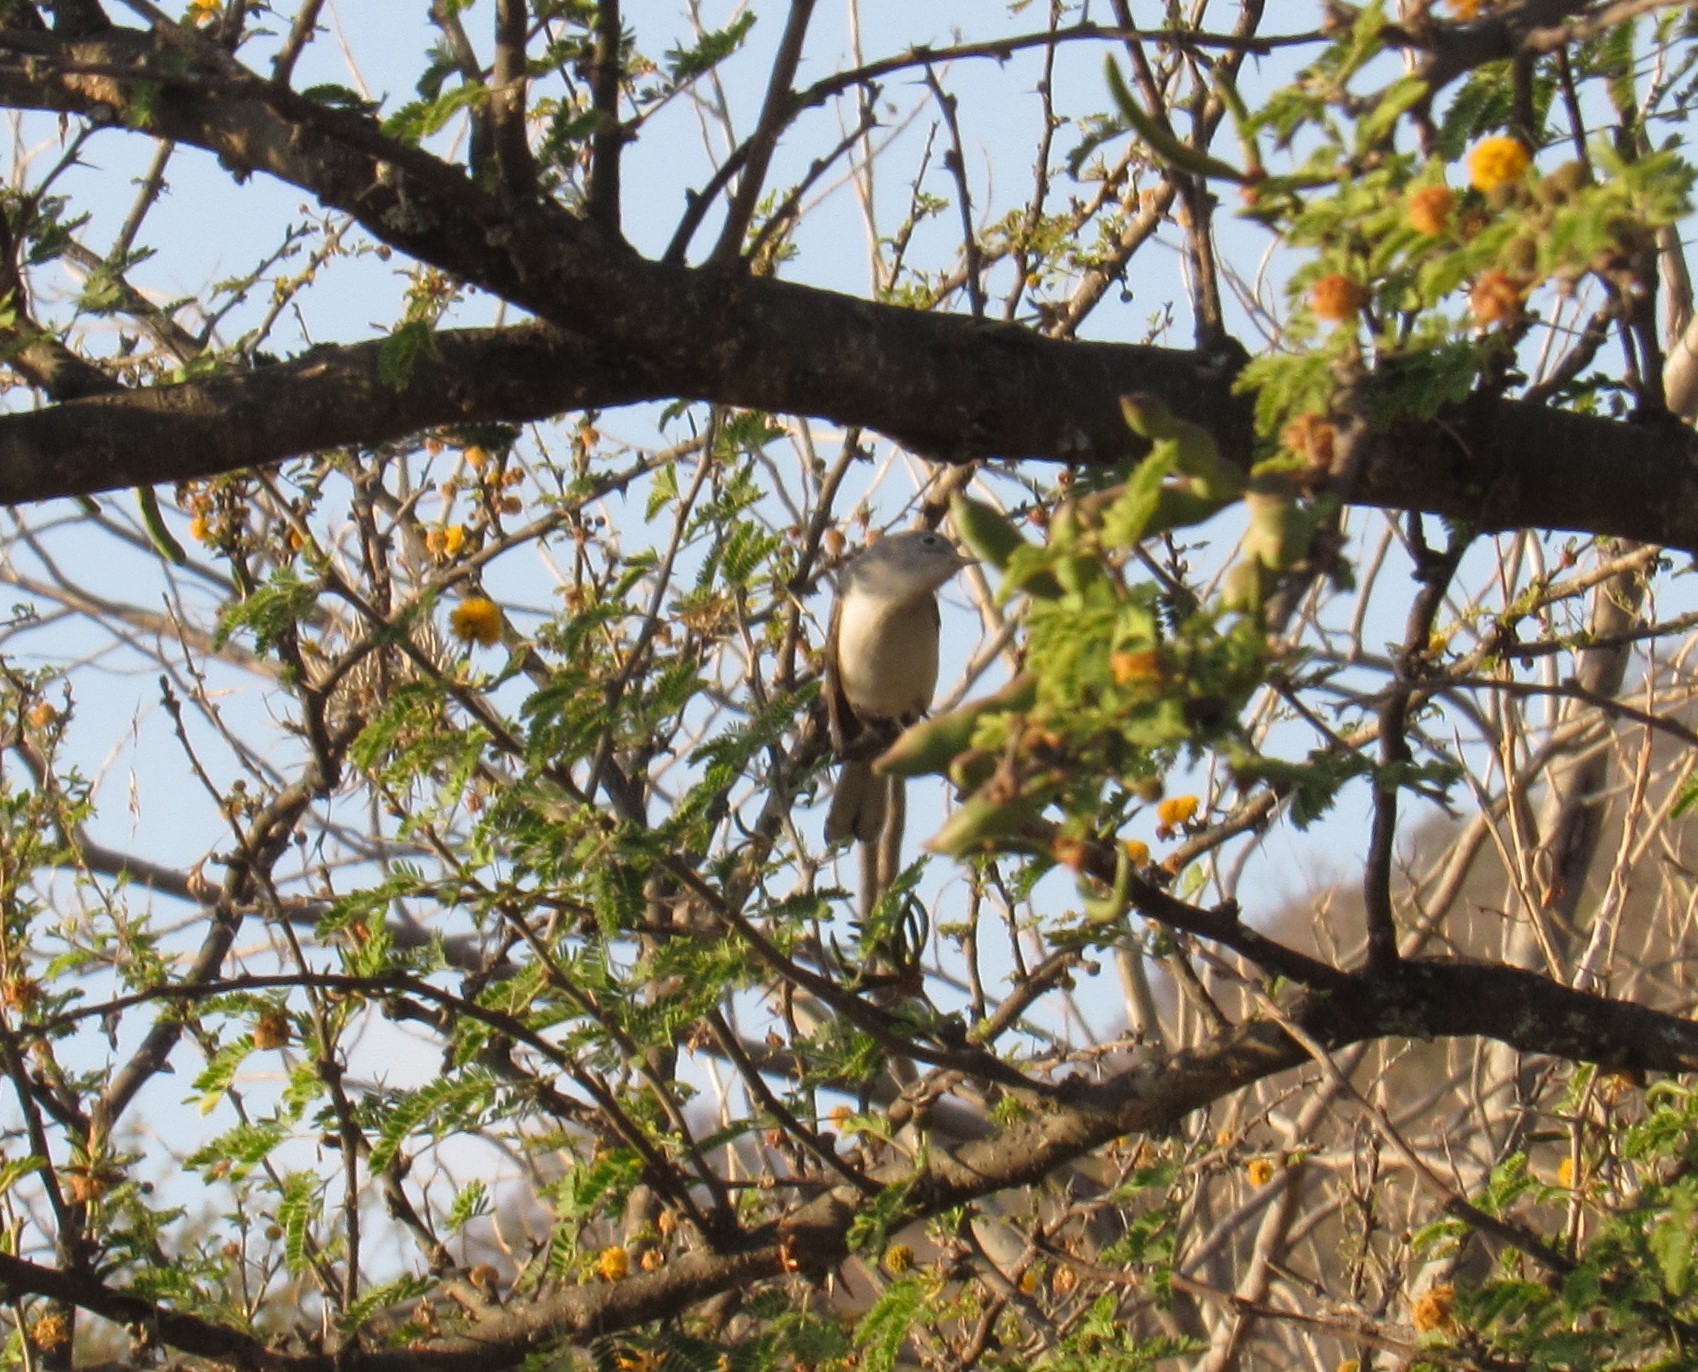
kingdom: Animalia
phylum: Chordata
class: Aves
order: Passeriformes
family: Polioptilidae
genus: Polioptila
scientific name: Polioptila caerulea
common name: Blue-gray gnatcatcher
